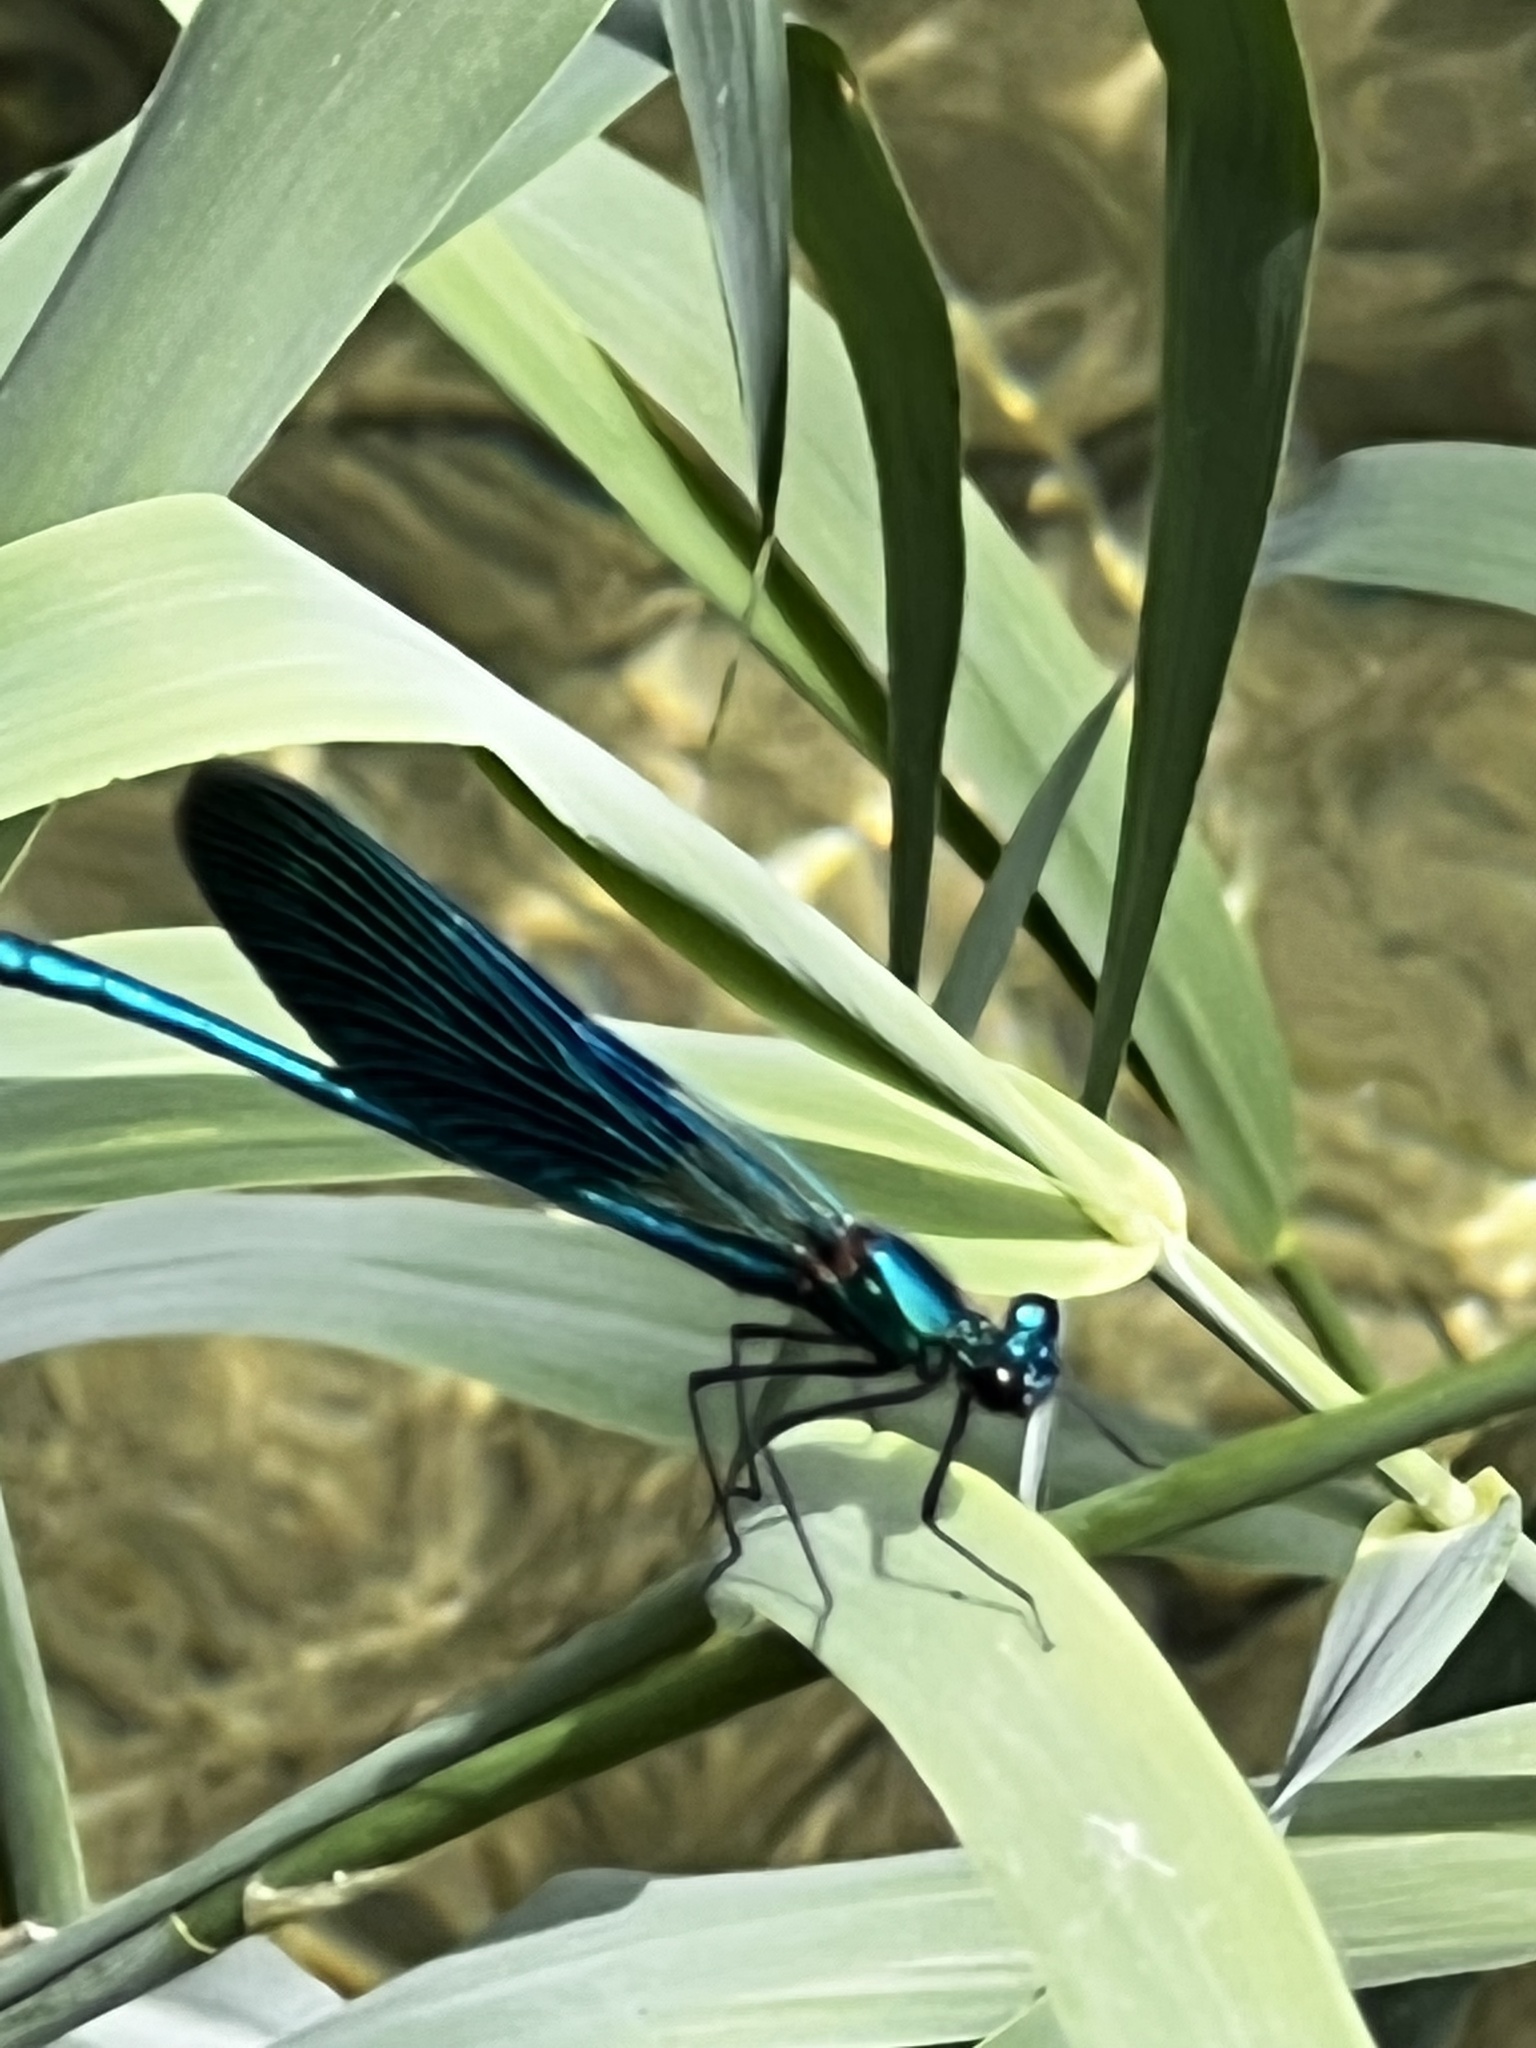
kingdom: Animalia
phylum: Arthropoda
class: Insecta
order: Odonata
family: Calopterygidae
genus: Calopteryx
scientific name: Calopteryx splendens
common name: Banded demoiselle
